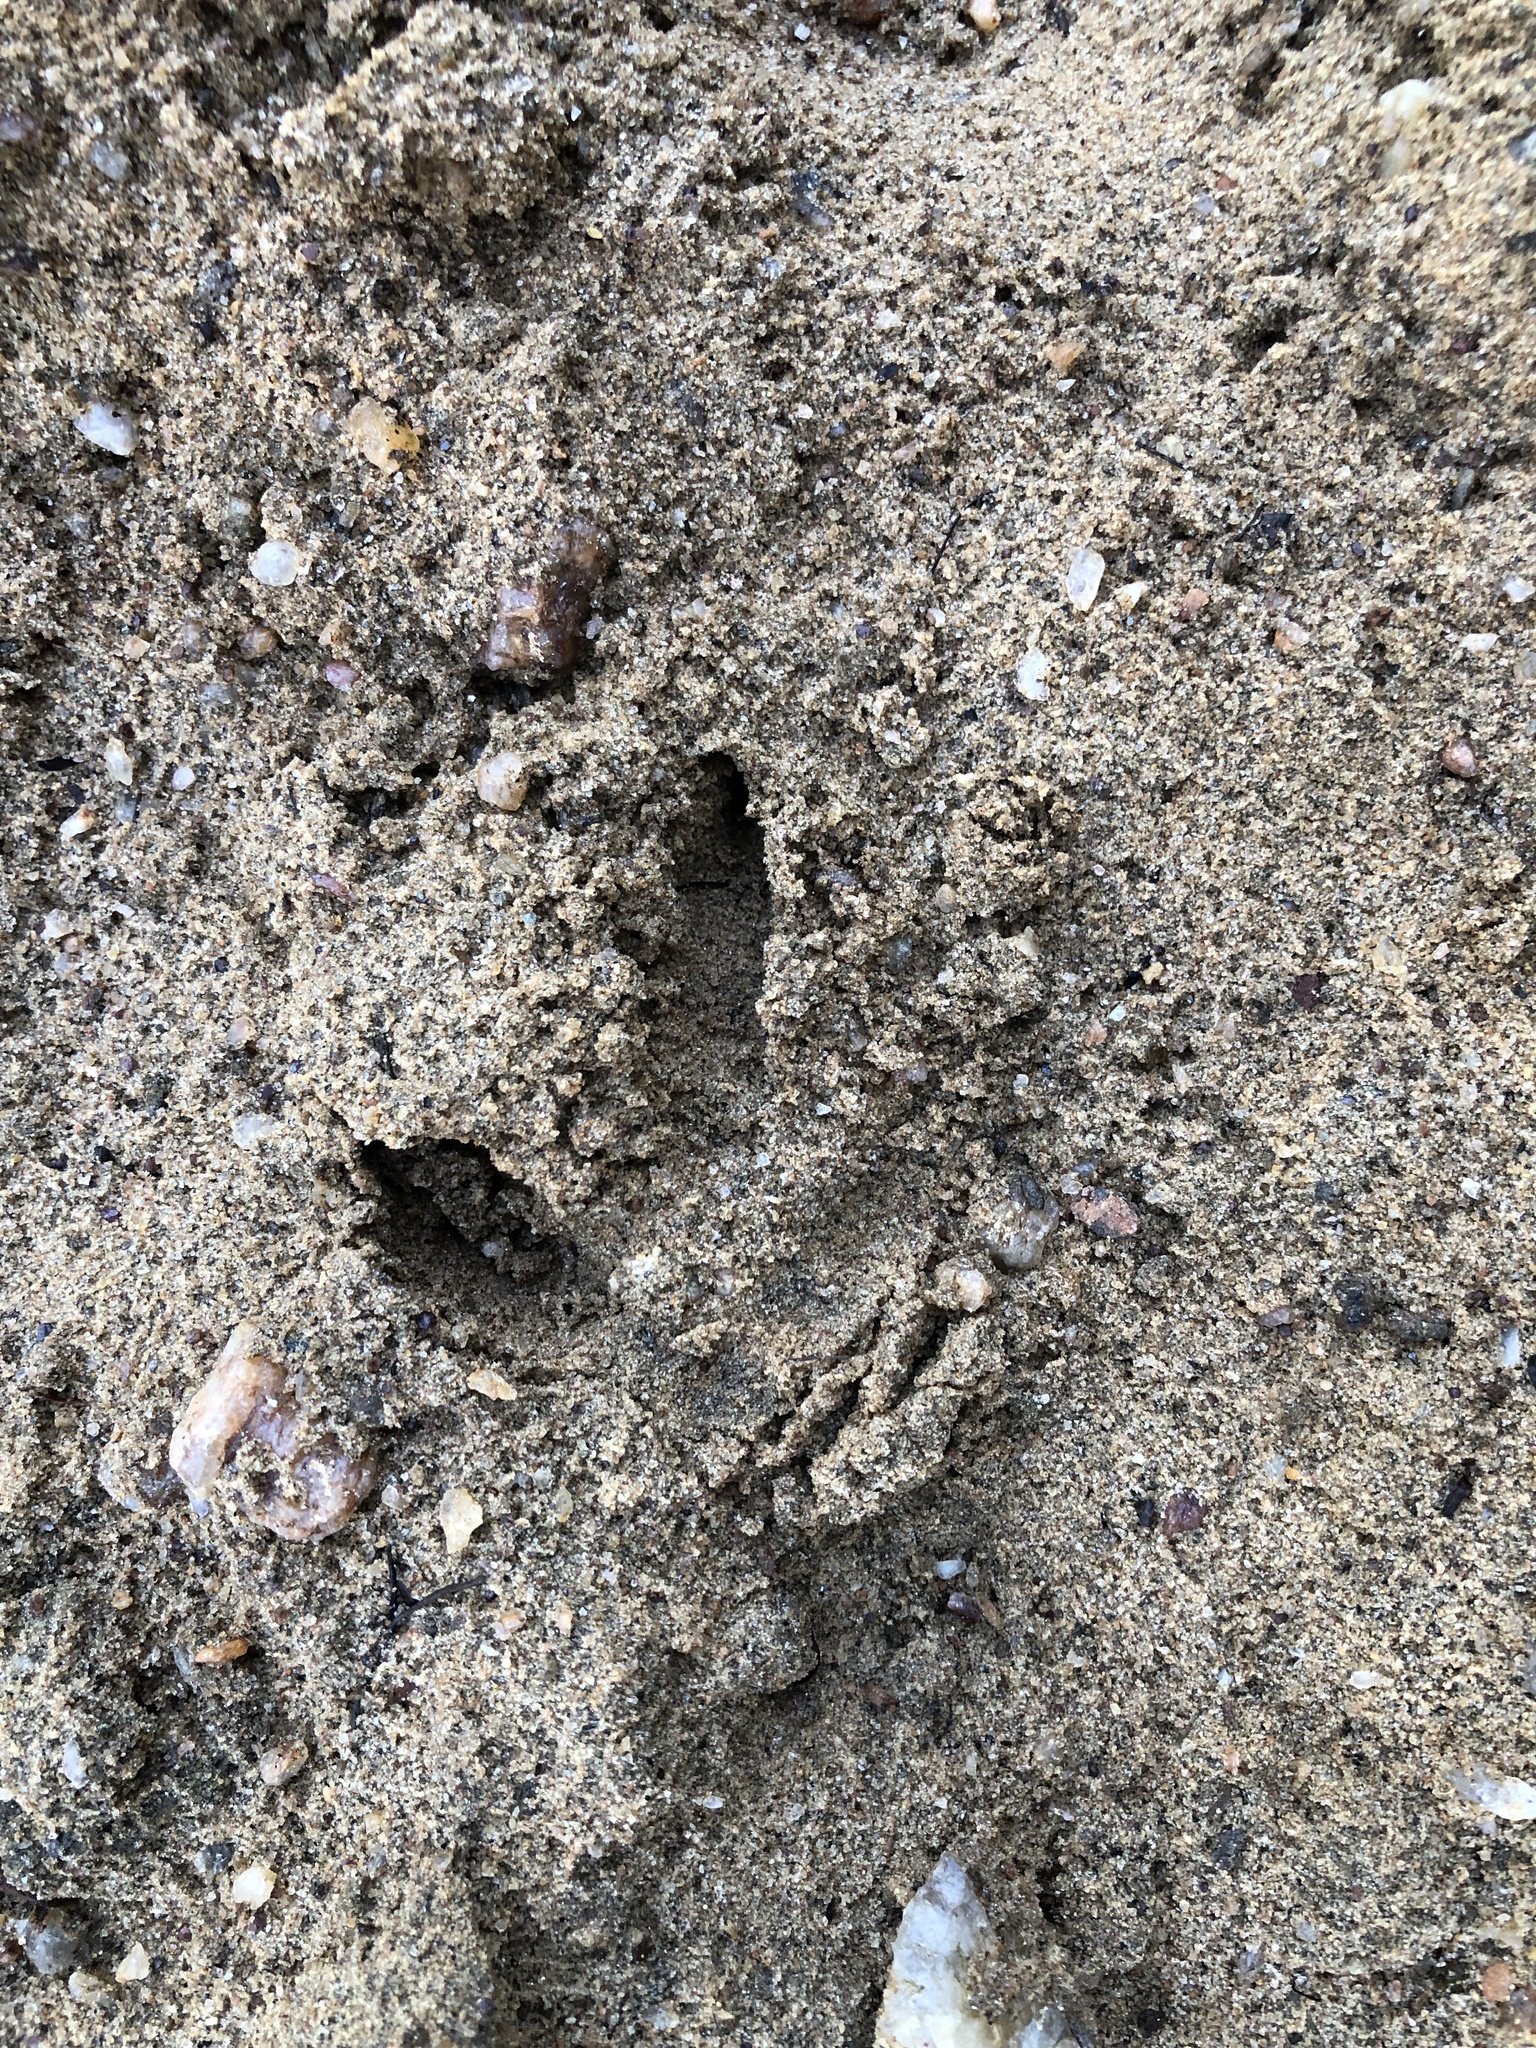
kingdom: Animalia
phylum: Chordata
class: Aves
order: Cariamiformes
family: Cariamidae
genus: Cariama
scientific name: Cariama cristata
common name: Red-legged seriema
